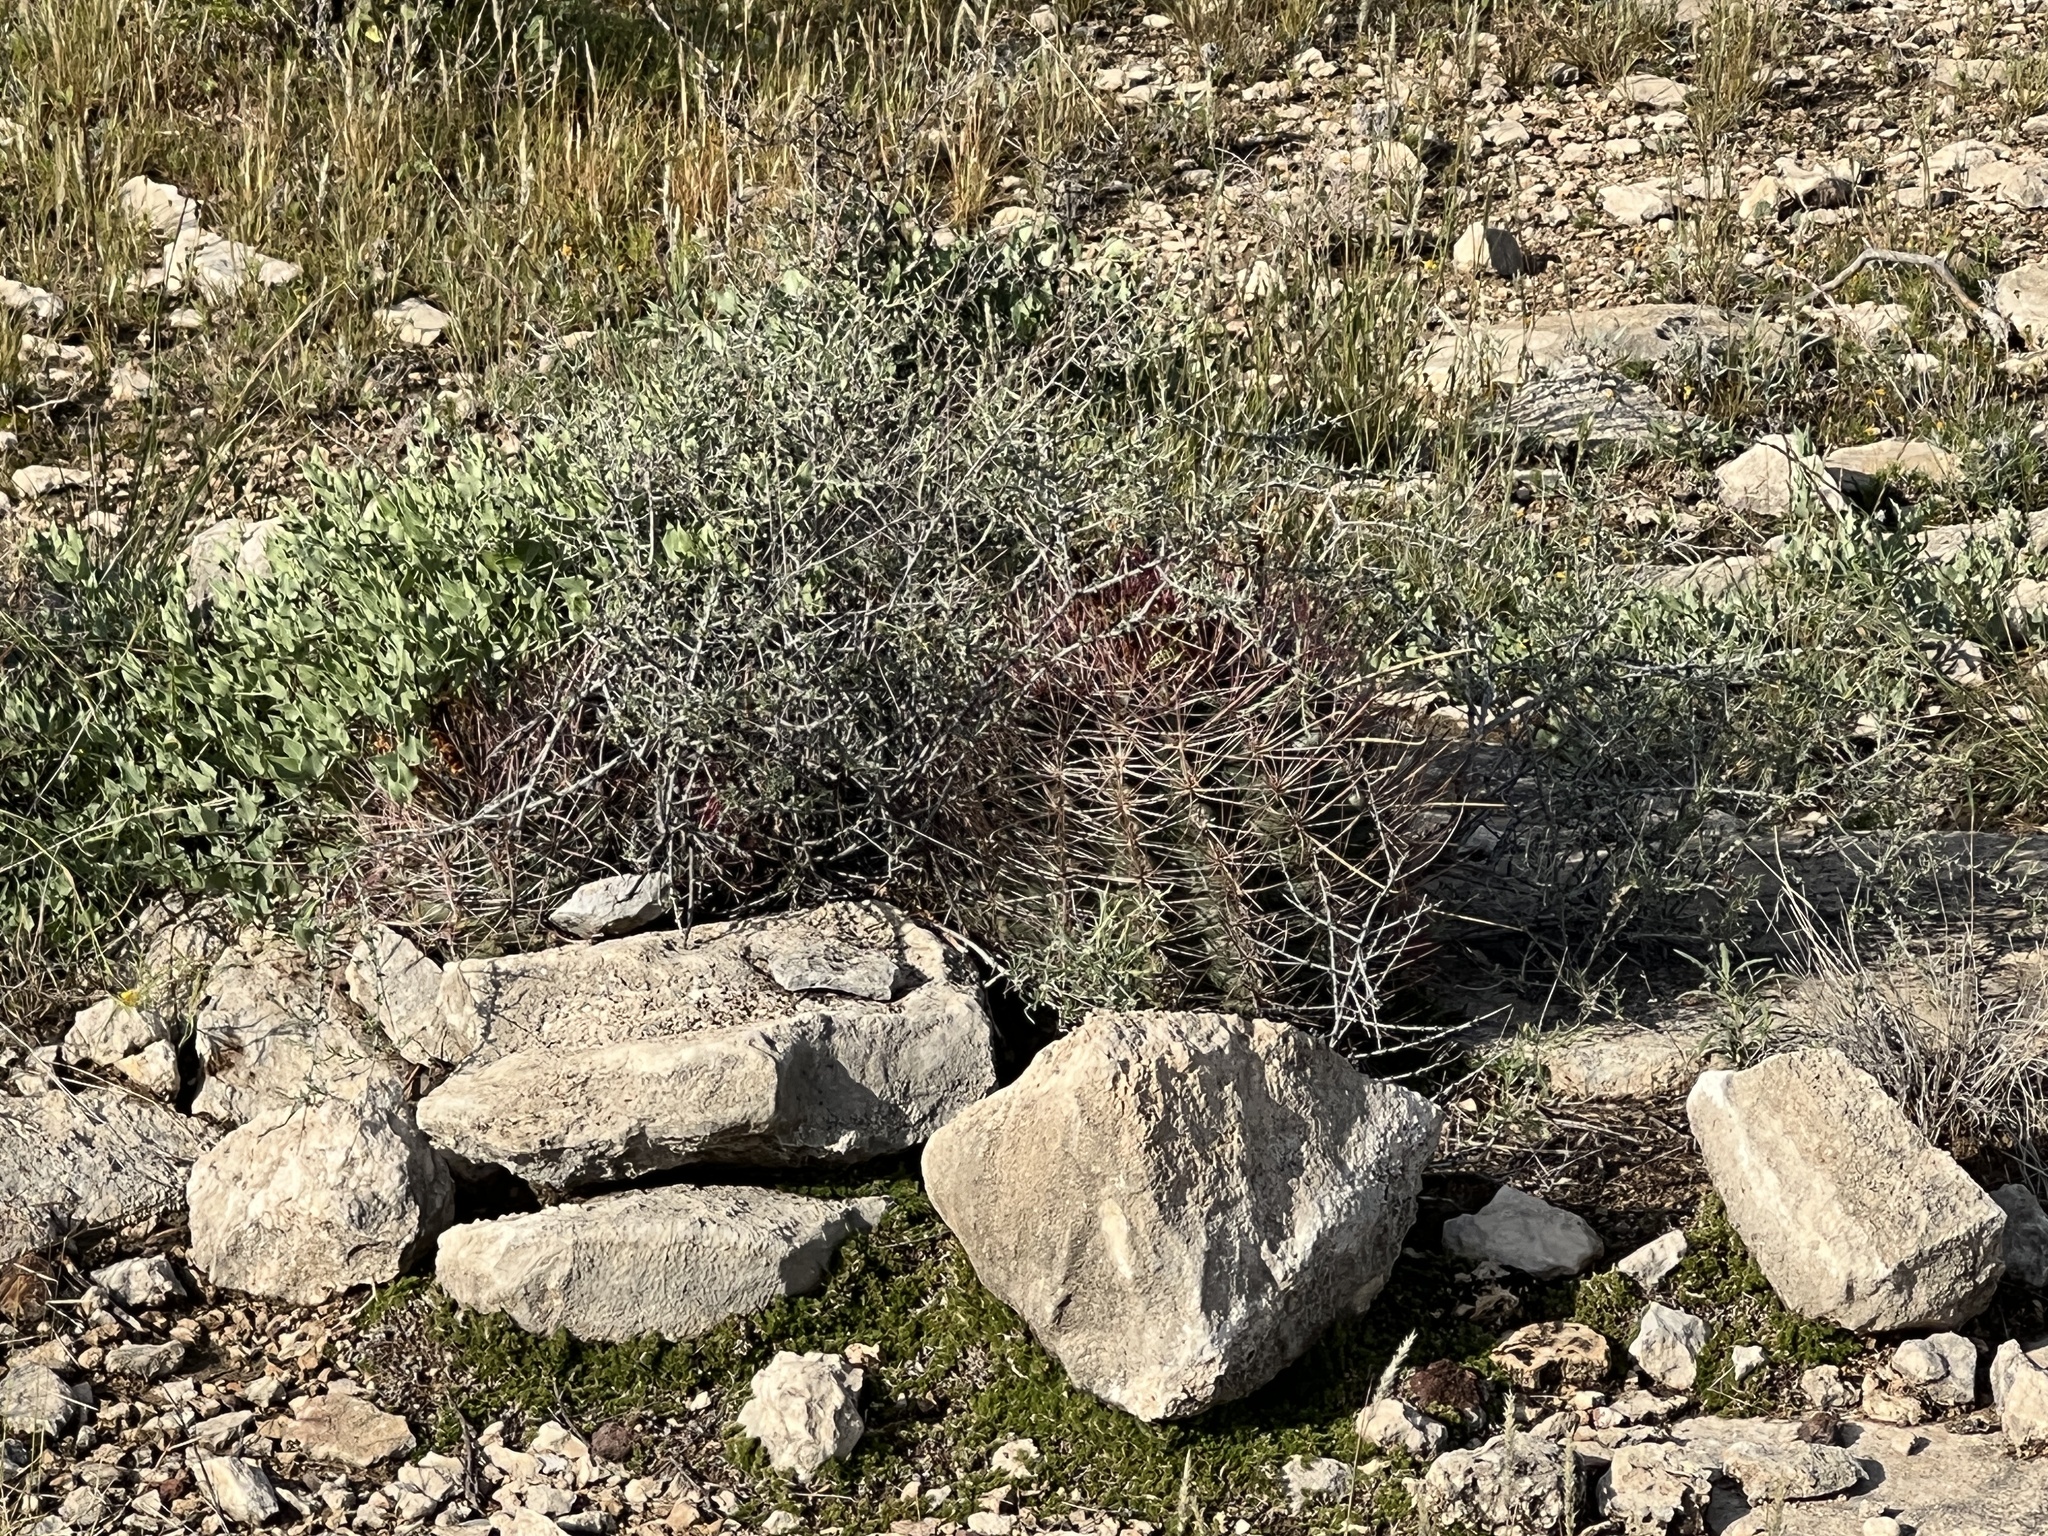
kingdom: Plantae
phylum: Tracheophyta
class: Magnoliopsida
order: Caryophyllales
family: Cactaceae
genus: Bisnaga
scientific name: Bisnaga hamatacantha
